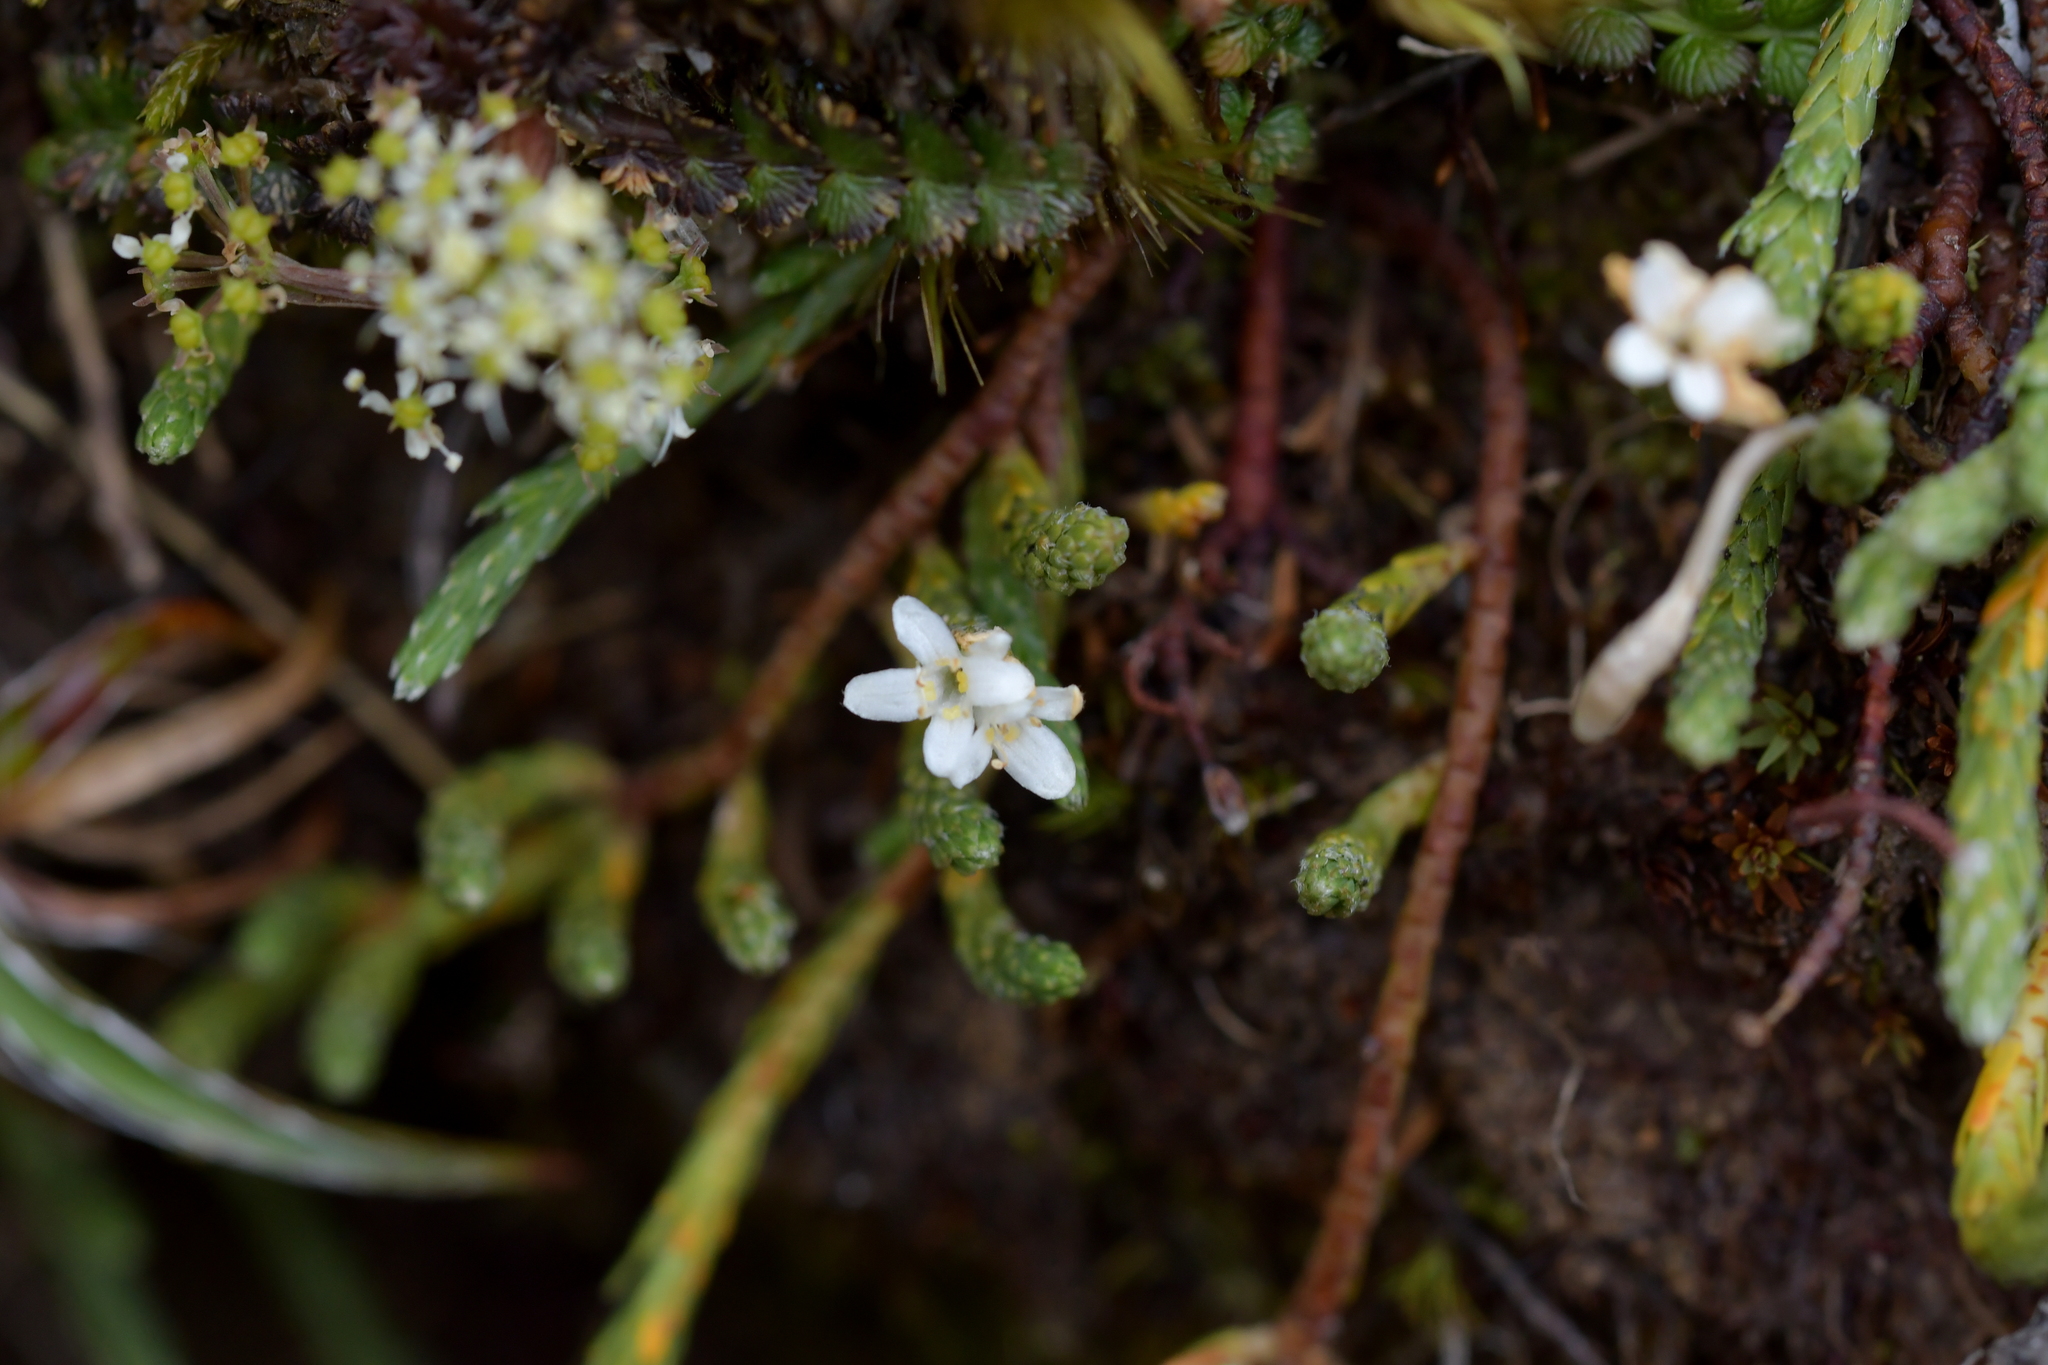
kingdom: Plantae
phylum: Tracheophyta
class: Magnoliopsida
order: Malvales
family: Thymelaeaceae
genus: Kelleria
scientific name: Kelleria dieffenbachii
